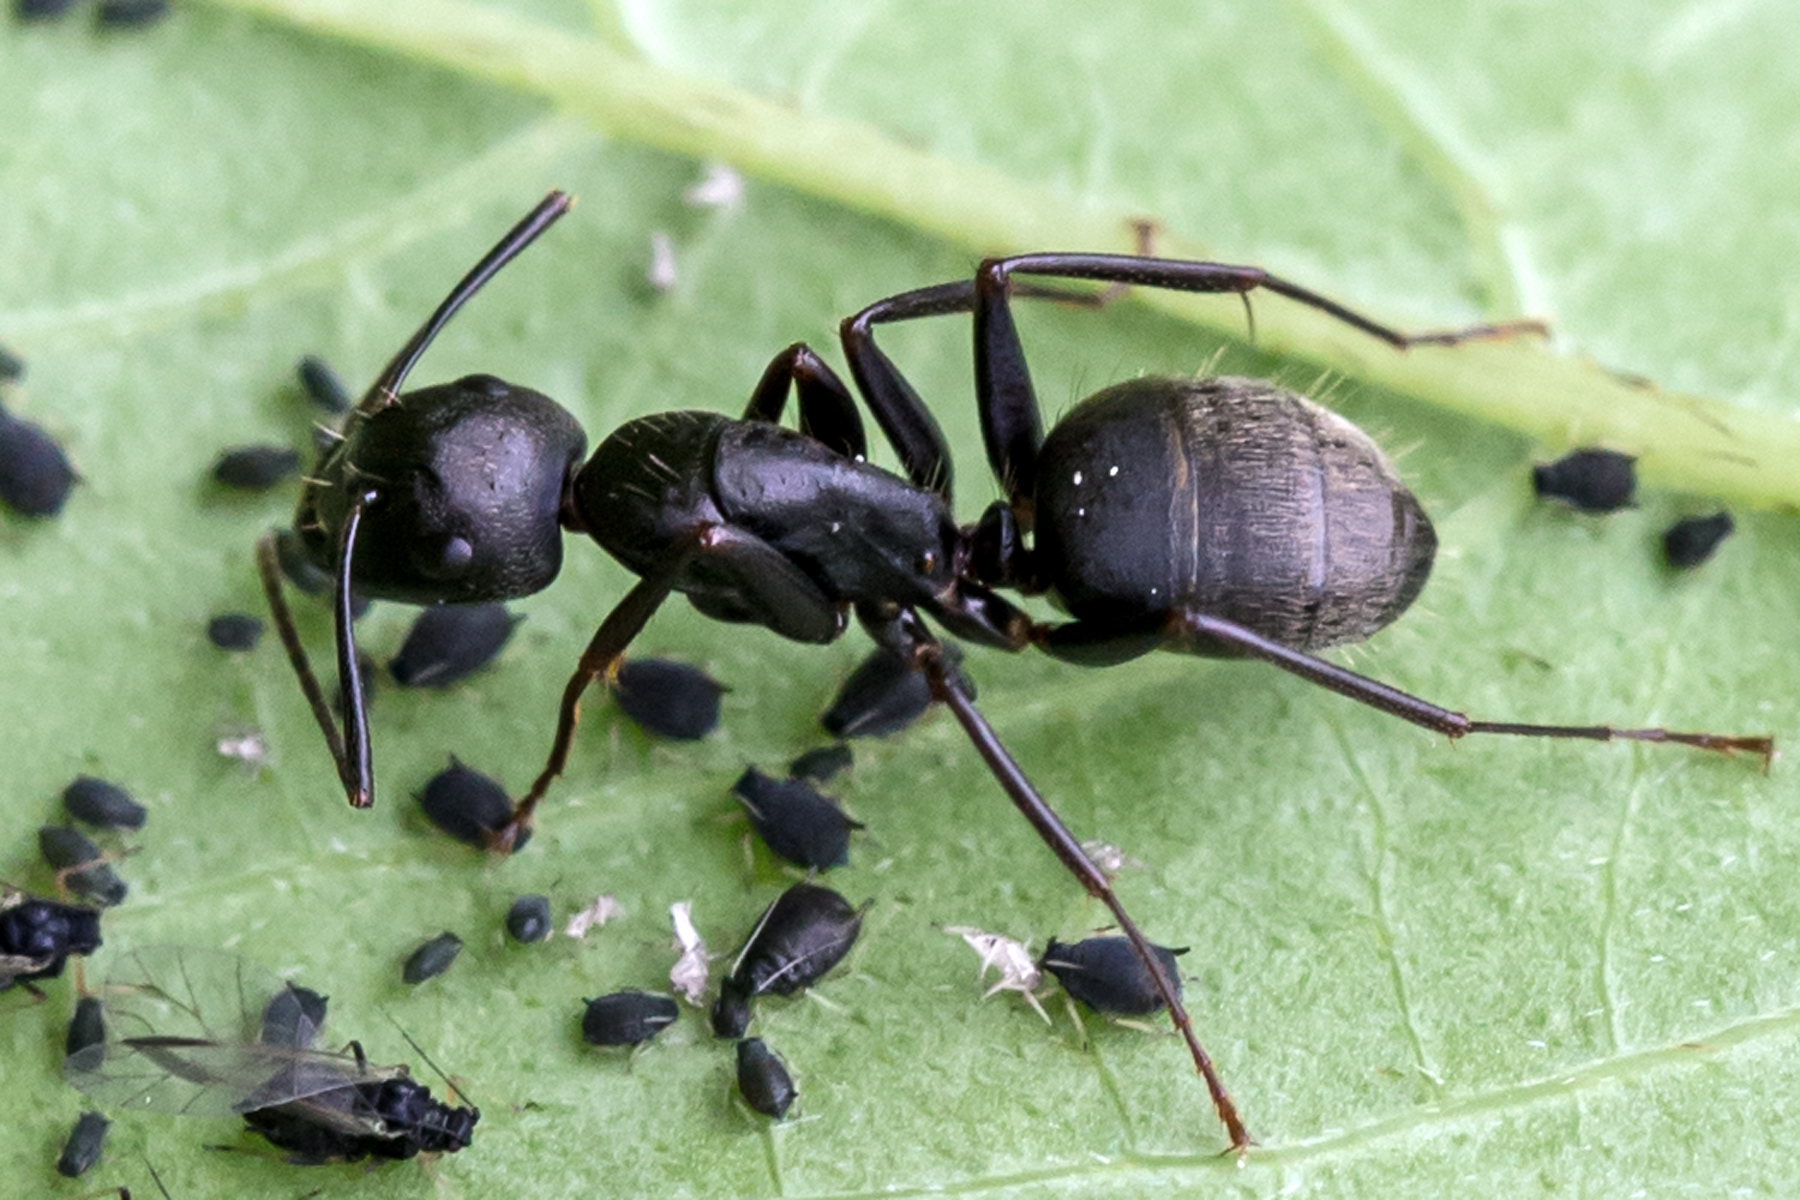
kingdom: Animalia
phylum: Arthropoda
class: Insecta
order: Hymenoptera
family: Formicidae
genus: Camponotus
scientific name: Camponotus pennsylvanicus
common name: Black carpenter ant
